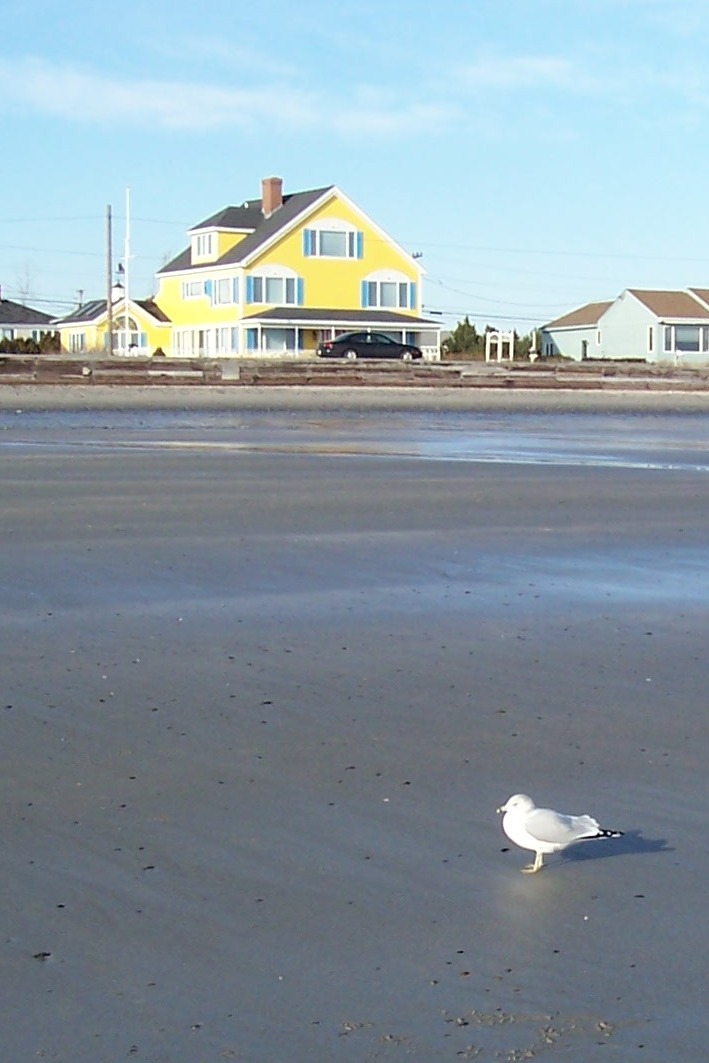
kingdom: Animalia
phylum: Chordata
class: Aves
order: Charadriiformes
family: Laridae
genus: Larus
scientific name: Larus delawarensis
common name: Ring-billed gull
